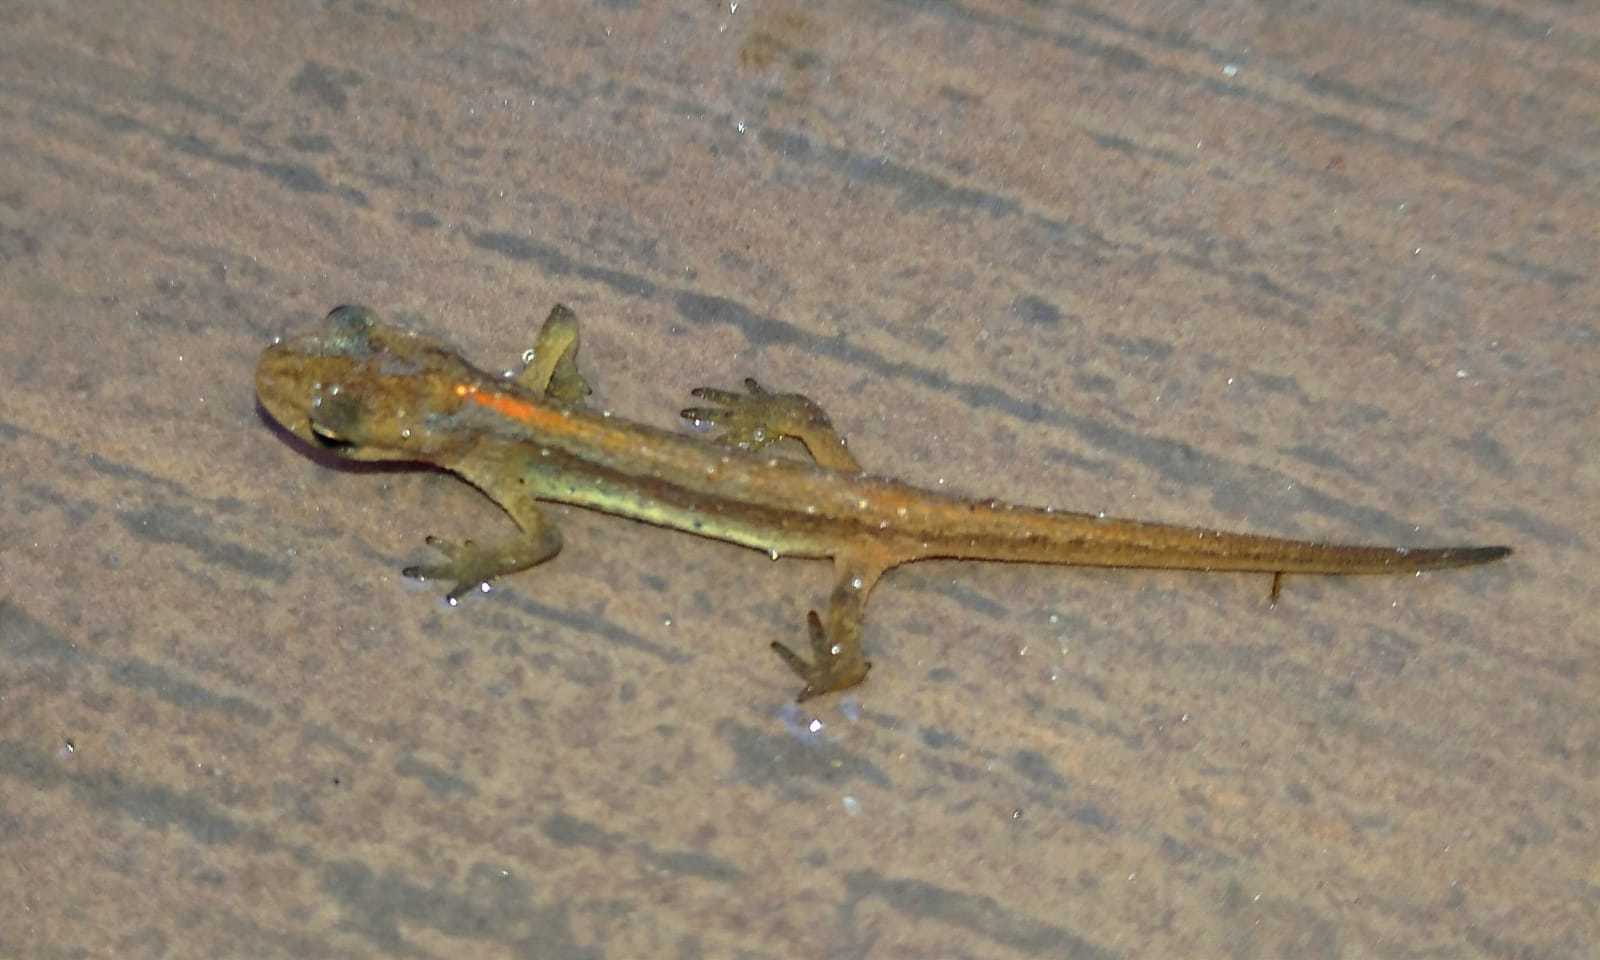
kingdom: Animalia
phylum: Chordata
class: Amphibia
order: Caudata
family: Salamandridae
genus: Lissotriton
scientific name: Lissotriton schmidtleri
